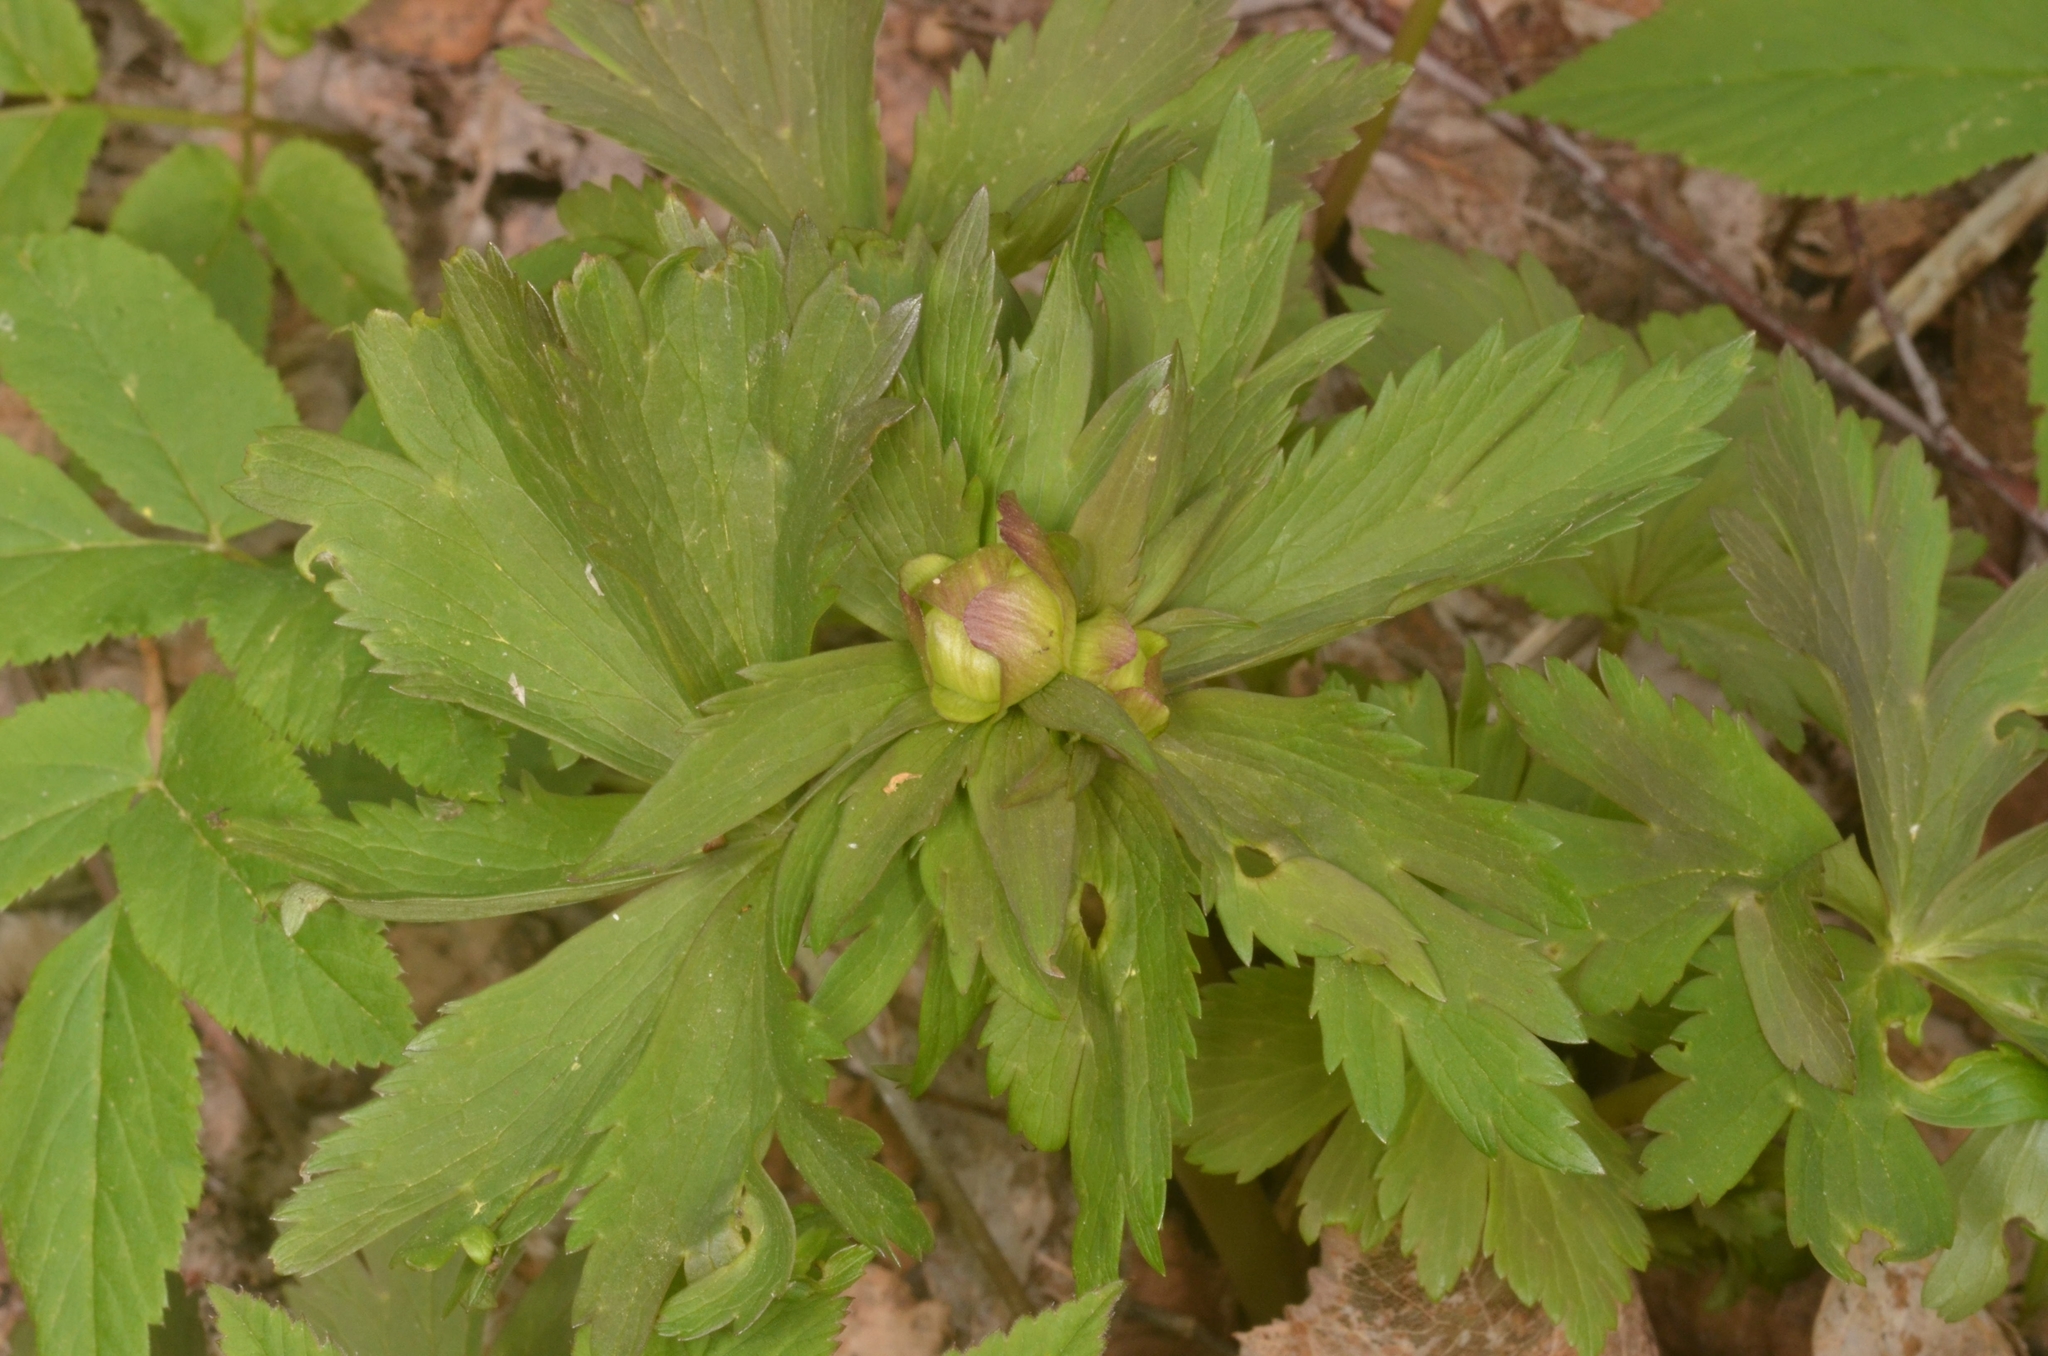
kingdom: Plantae
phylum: Tracheophyta
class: Magnoliopsida
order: Ranunculales
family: Ranunculaceae
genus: Trollius
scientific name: Trollius europaeus
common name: European globeflower
